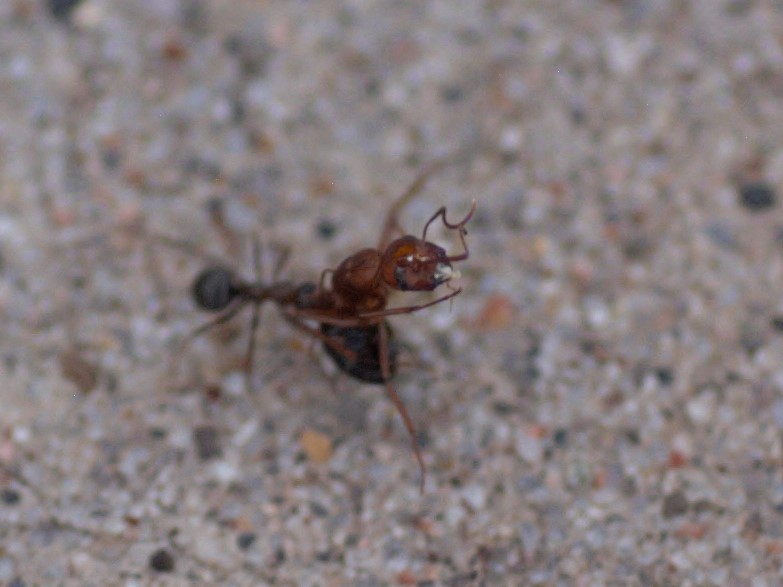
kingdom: Animalia
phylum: Arthropoda
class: Insecta
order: Hymenoptera
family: Formicidae
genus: Camponotus
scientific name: Camponotus
